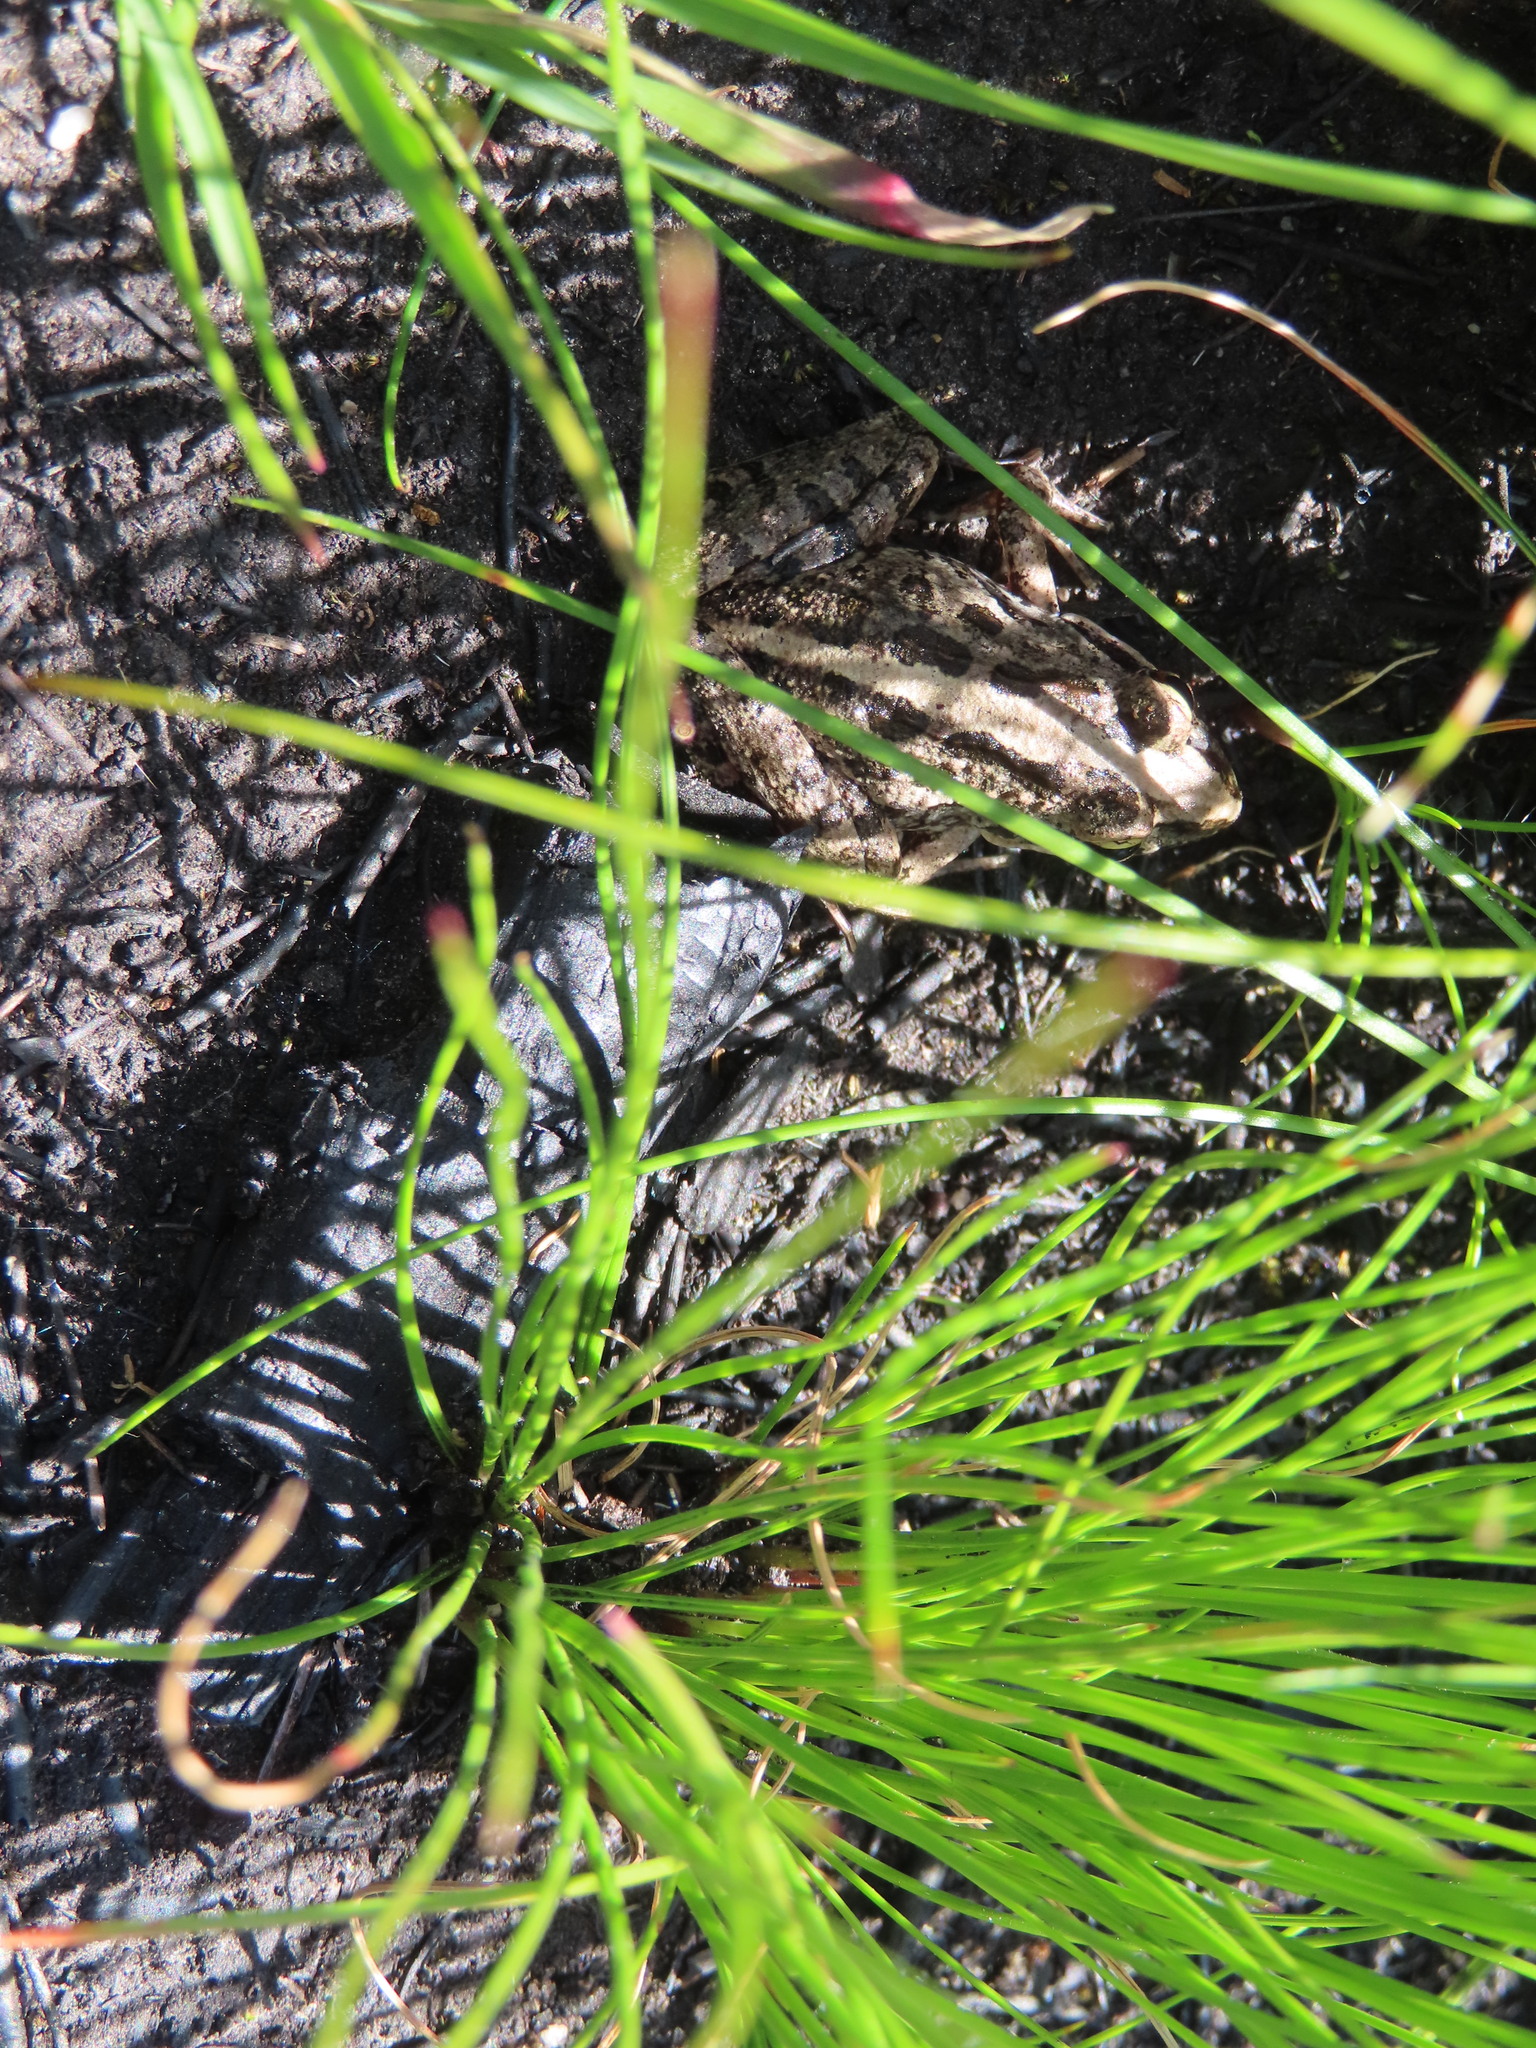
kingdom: Animalia
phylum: Chordata
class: Amphibia
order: Anura
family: Pyxicephalidae
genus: Strongylopus
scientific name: Strongylopus grayii
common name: Gray's stream frog
